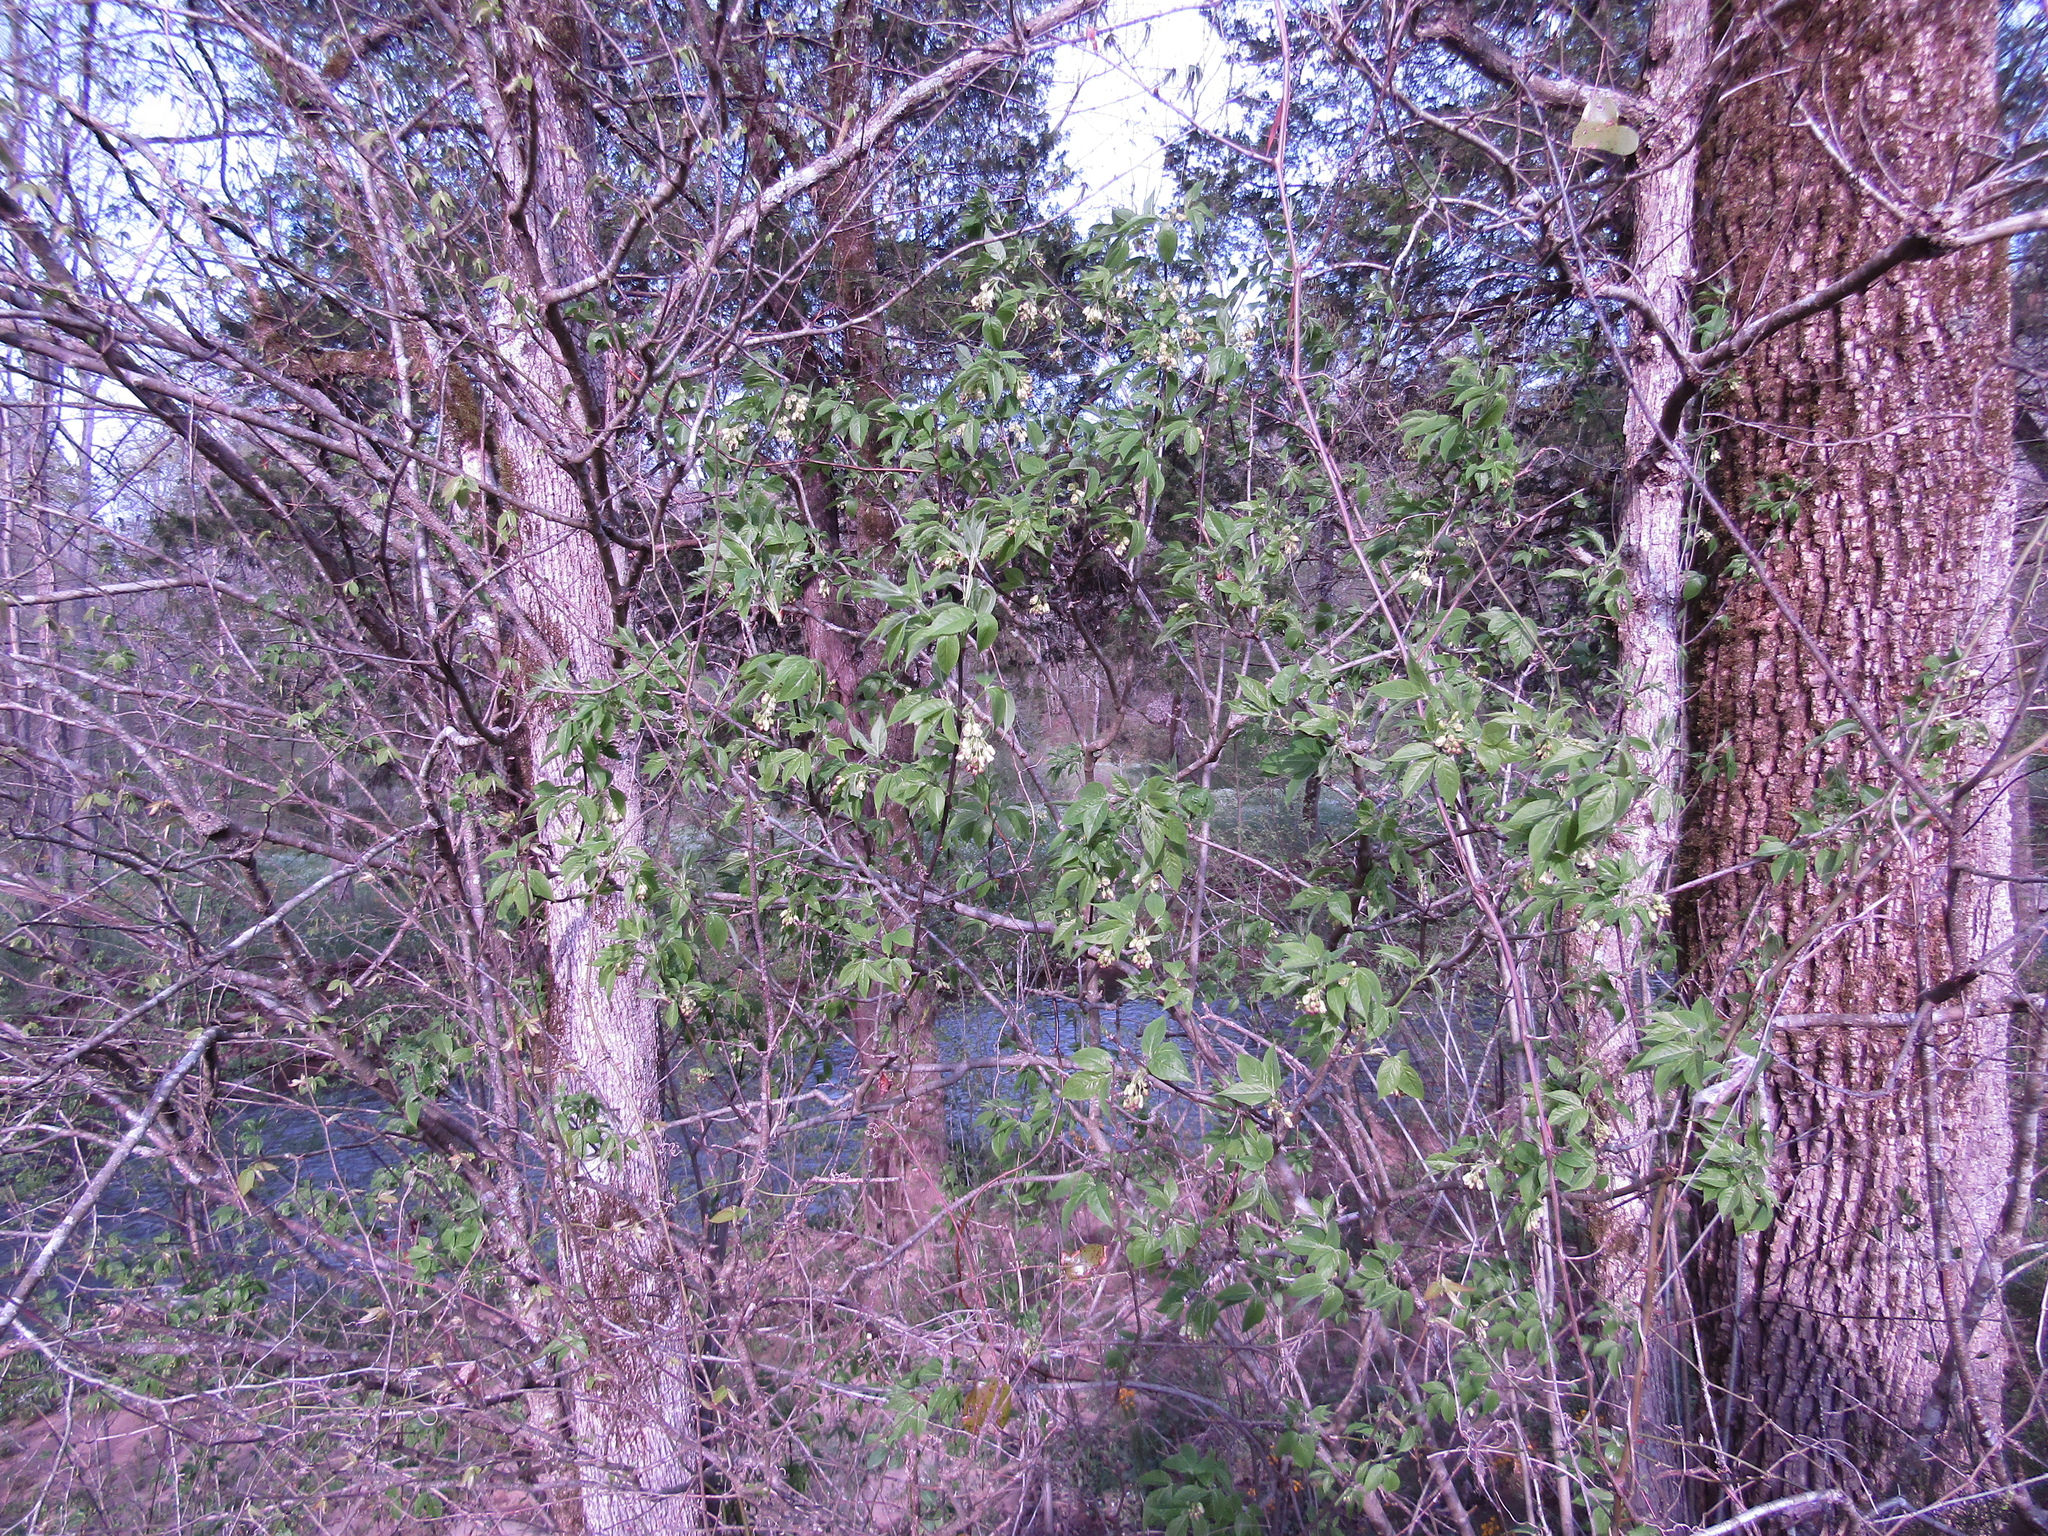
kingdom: Plantae
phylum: Tracheophyta
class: Magnoliopsida
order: Crossosomatales
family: Staphyleaceae
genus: Staphylea
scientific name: Staphylea trifolia
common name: American bladdernut
